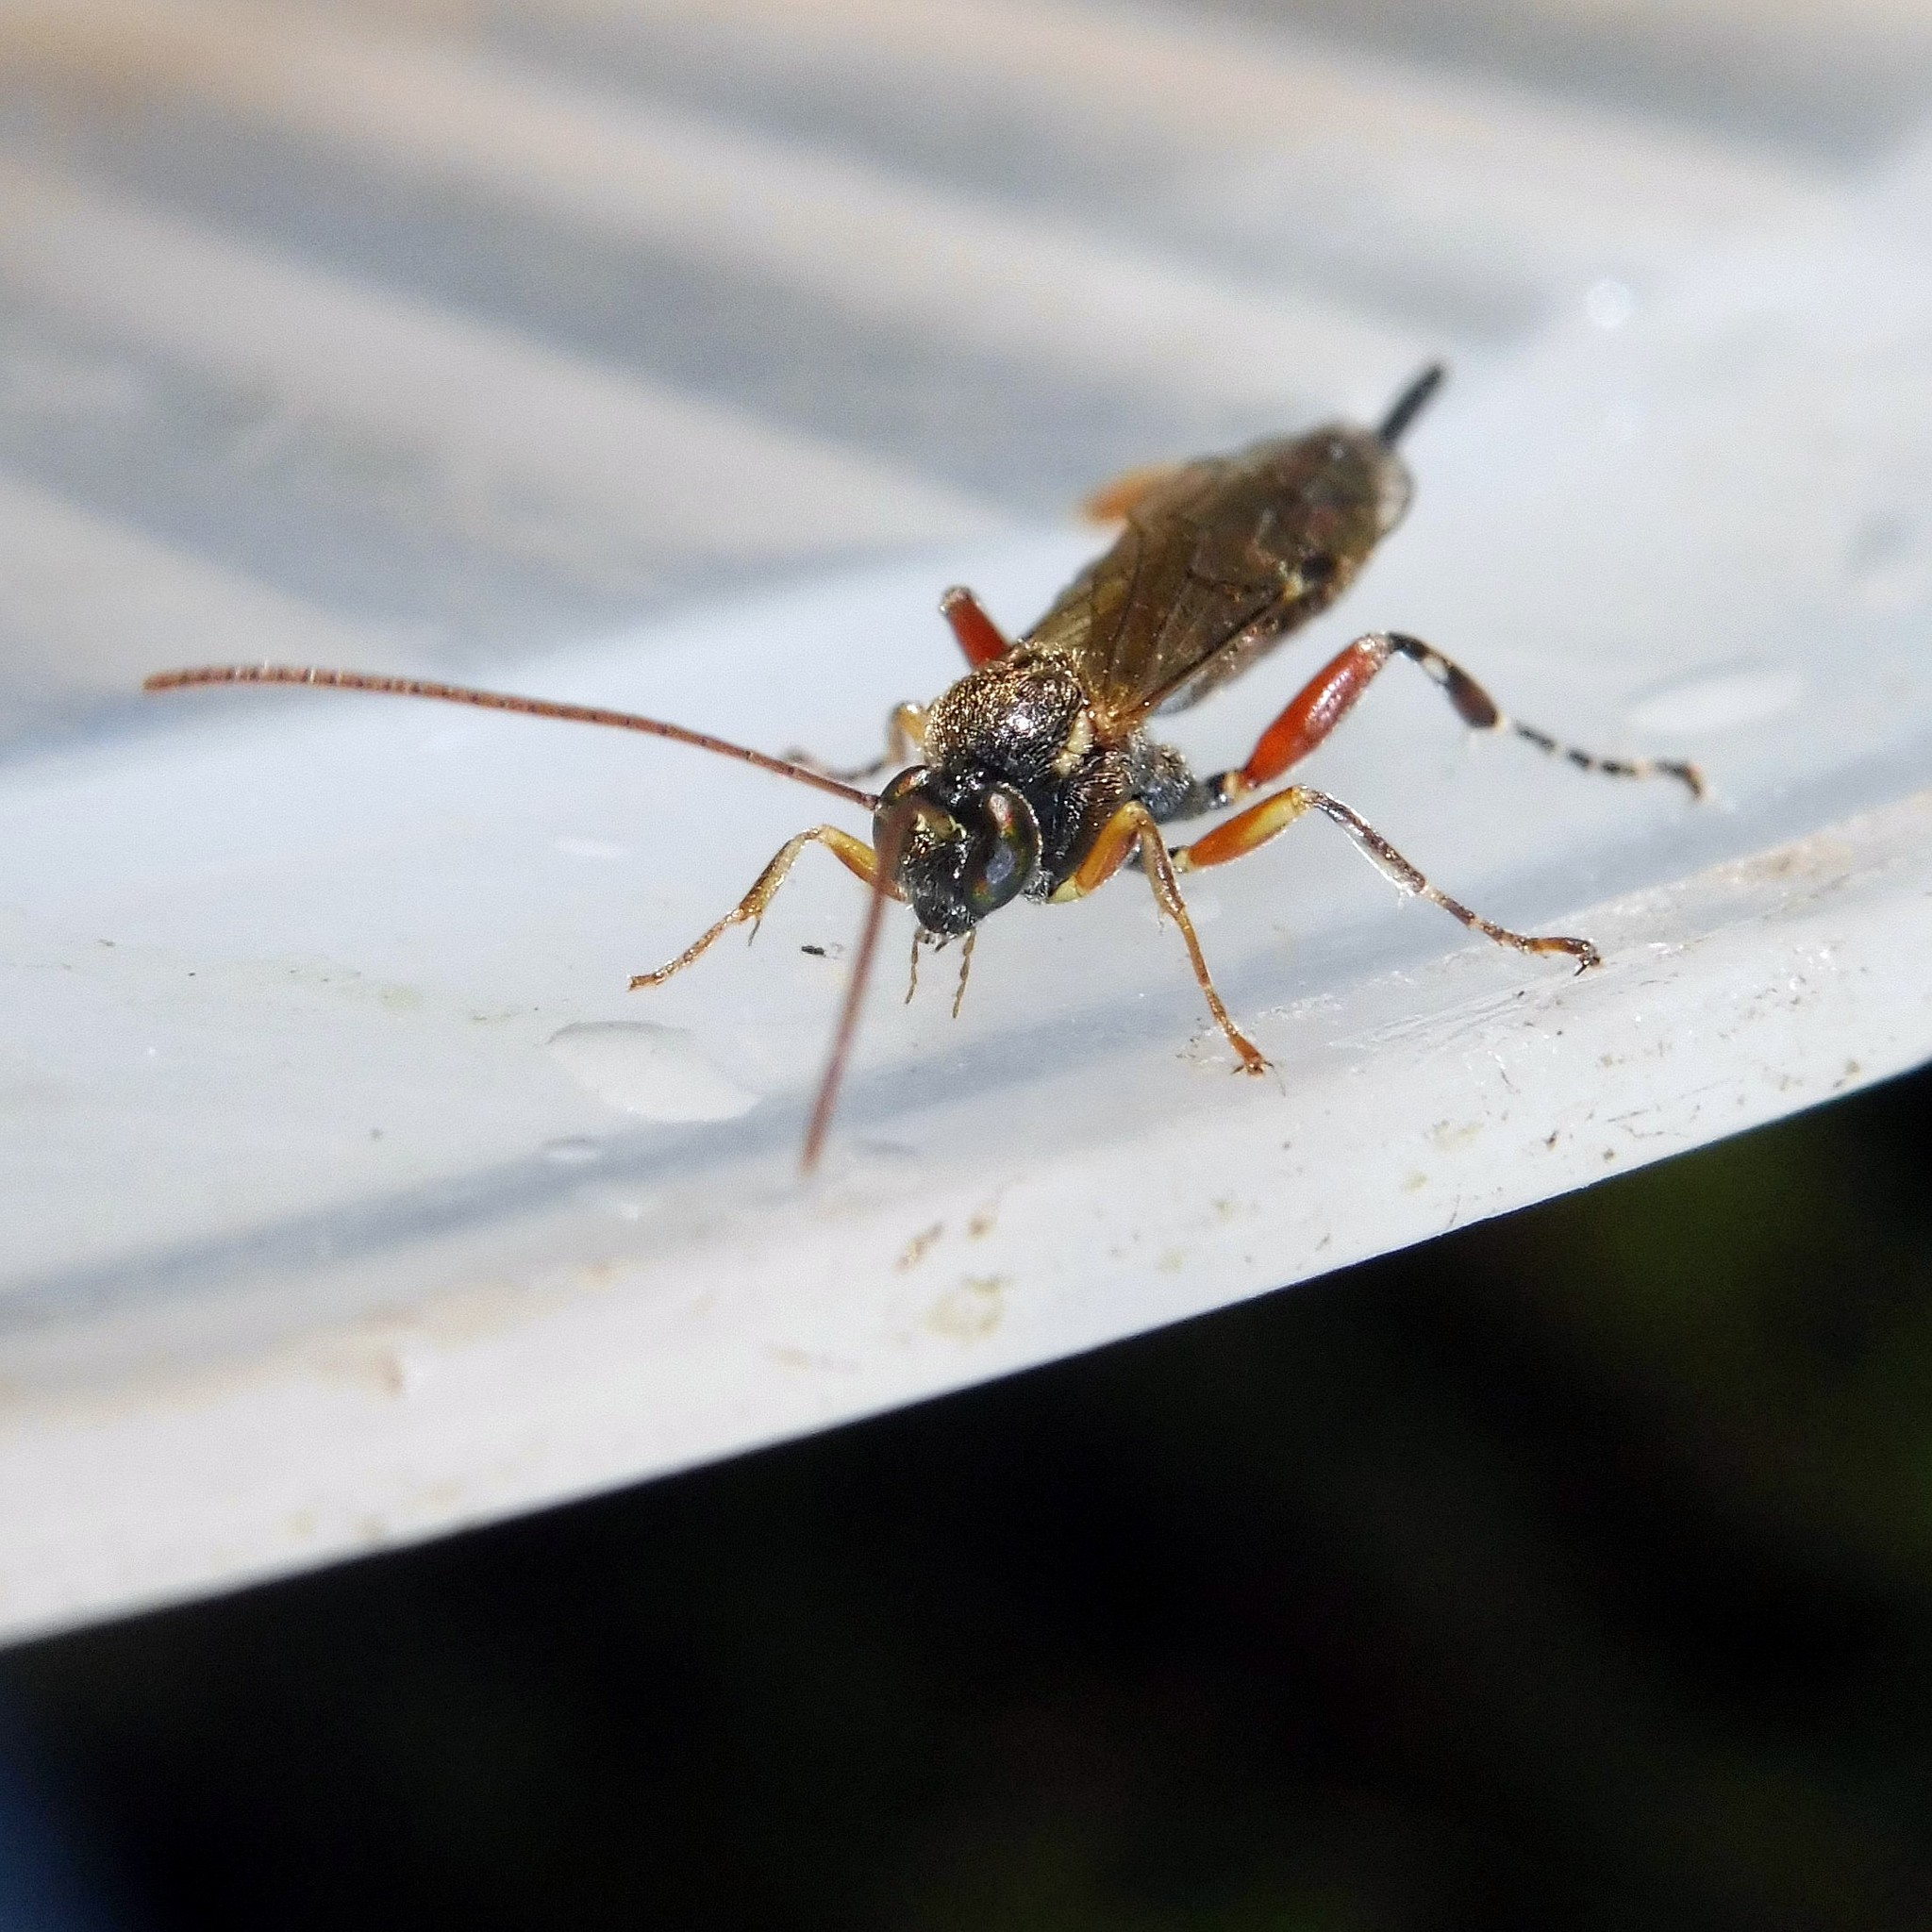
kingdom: Animalia
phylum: Arthropoda
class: Insecta
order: Hymenoptera
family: Ichneumonidae
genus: Itoplectis
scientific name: Itoplectis maculator
